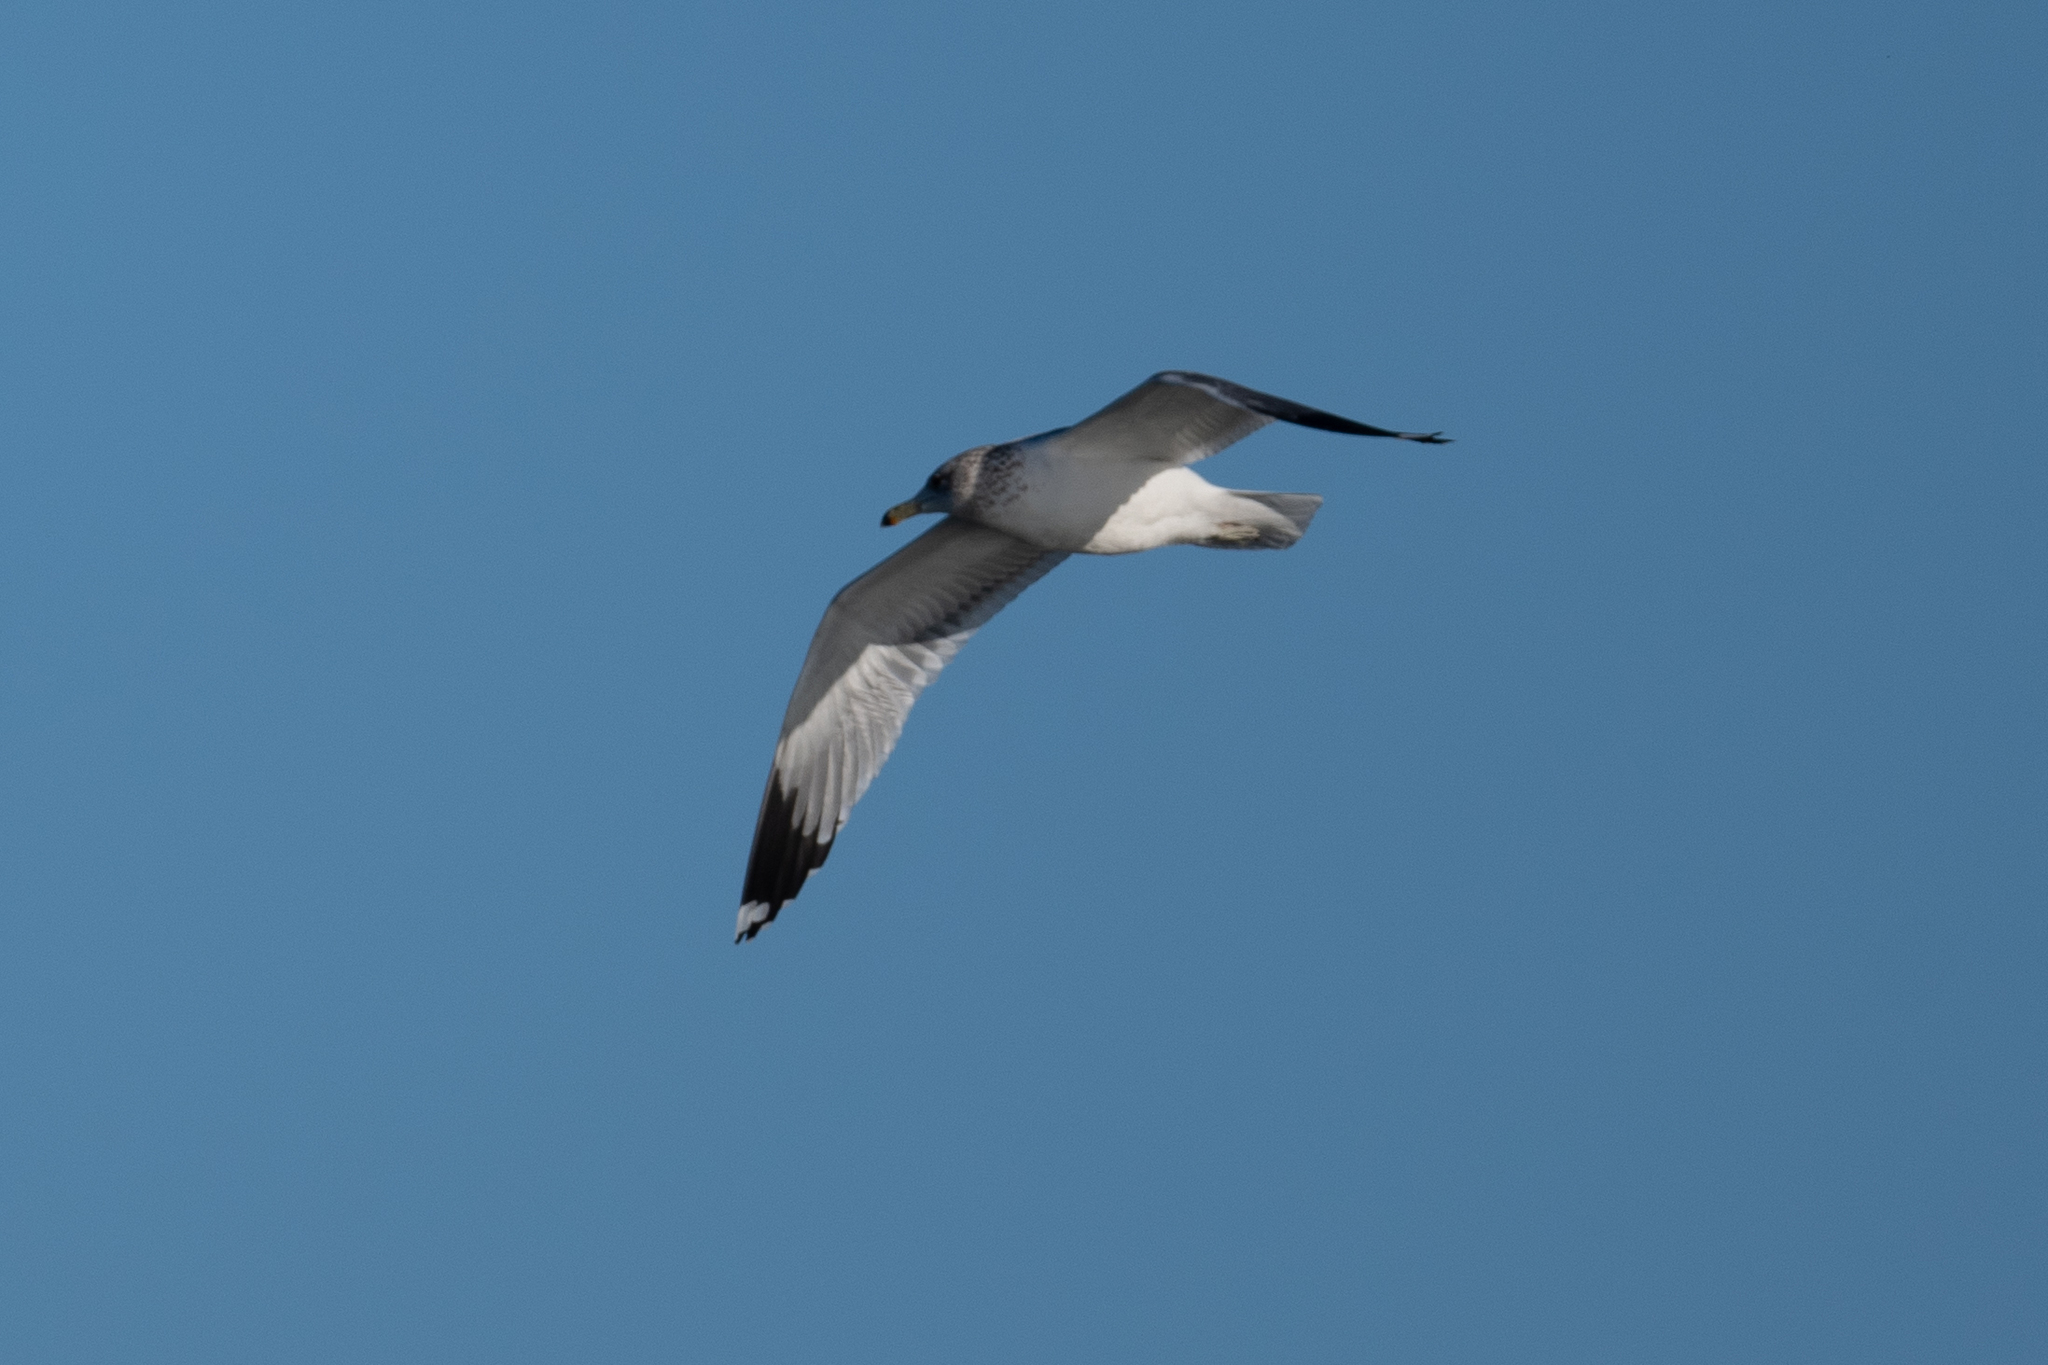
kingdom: Animalia
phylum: Chordata
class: Aves
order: Charadriiformes
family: Laridae
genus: Larus
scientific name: Larus californicus
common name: California gull
